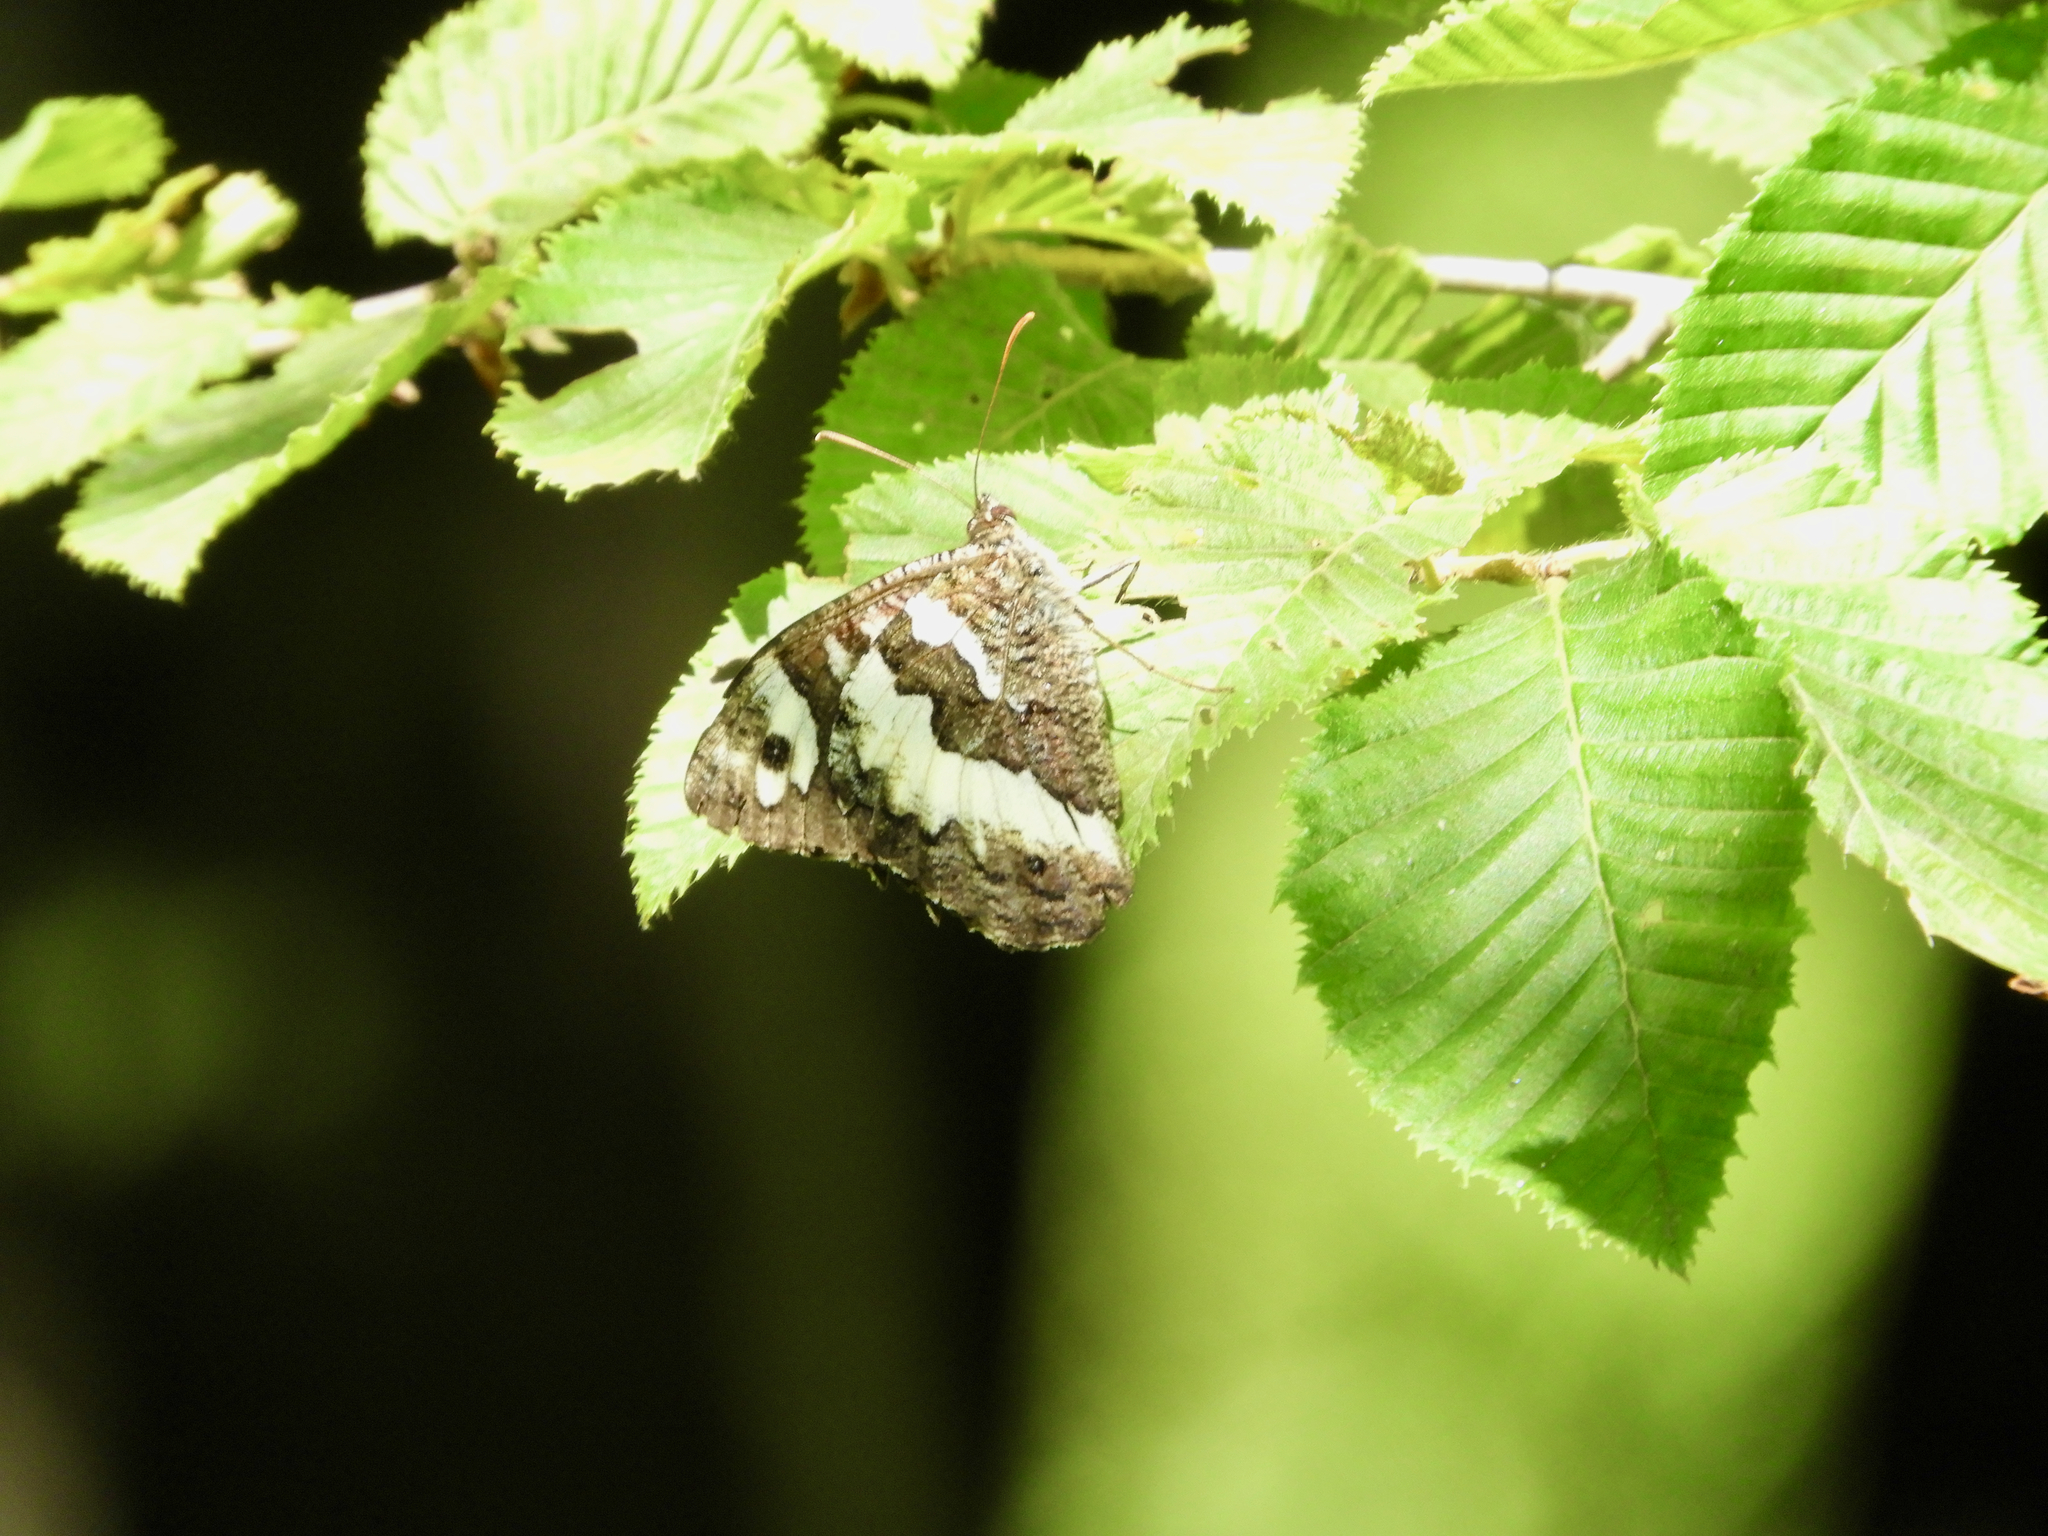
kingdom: Animalia
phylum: Arthropoda
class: Insecta
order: Lepidoptera
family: Lycaenidae
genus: Loweia
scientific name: Loweia tityrus
